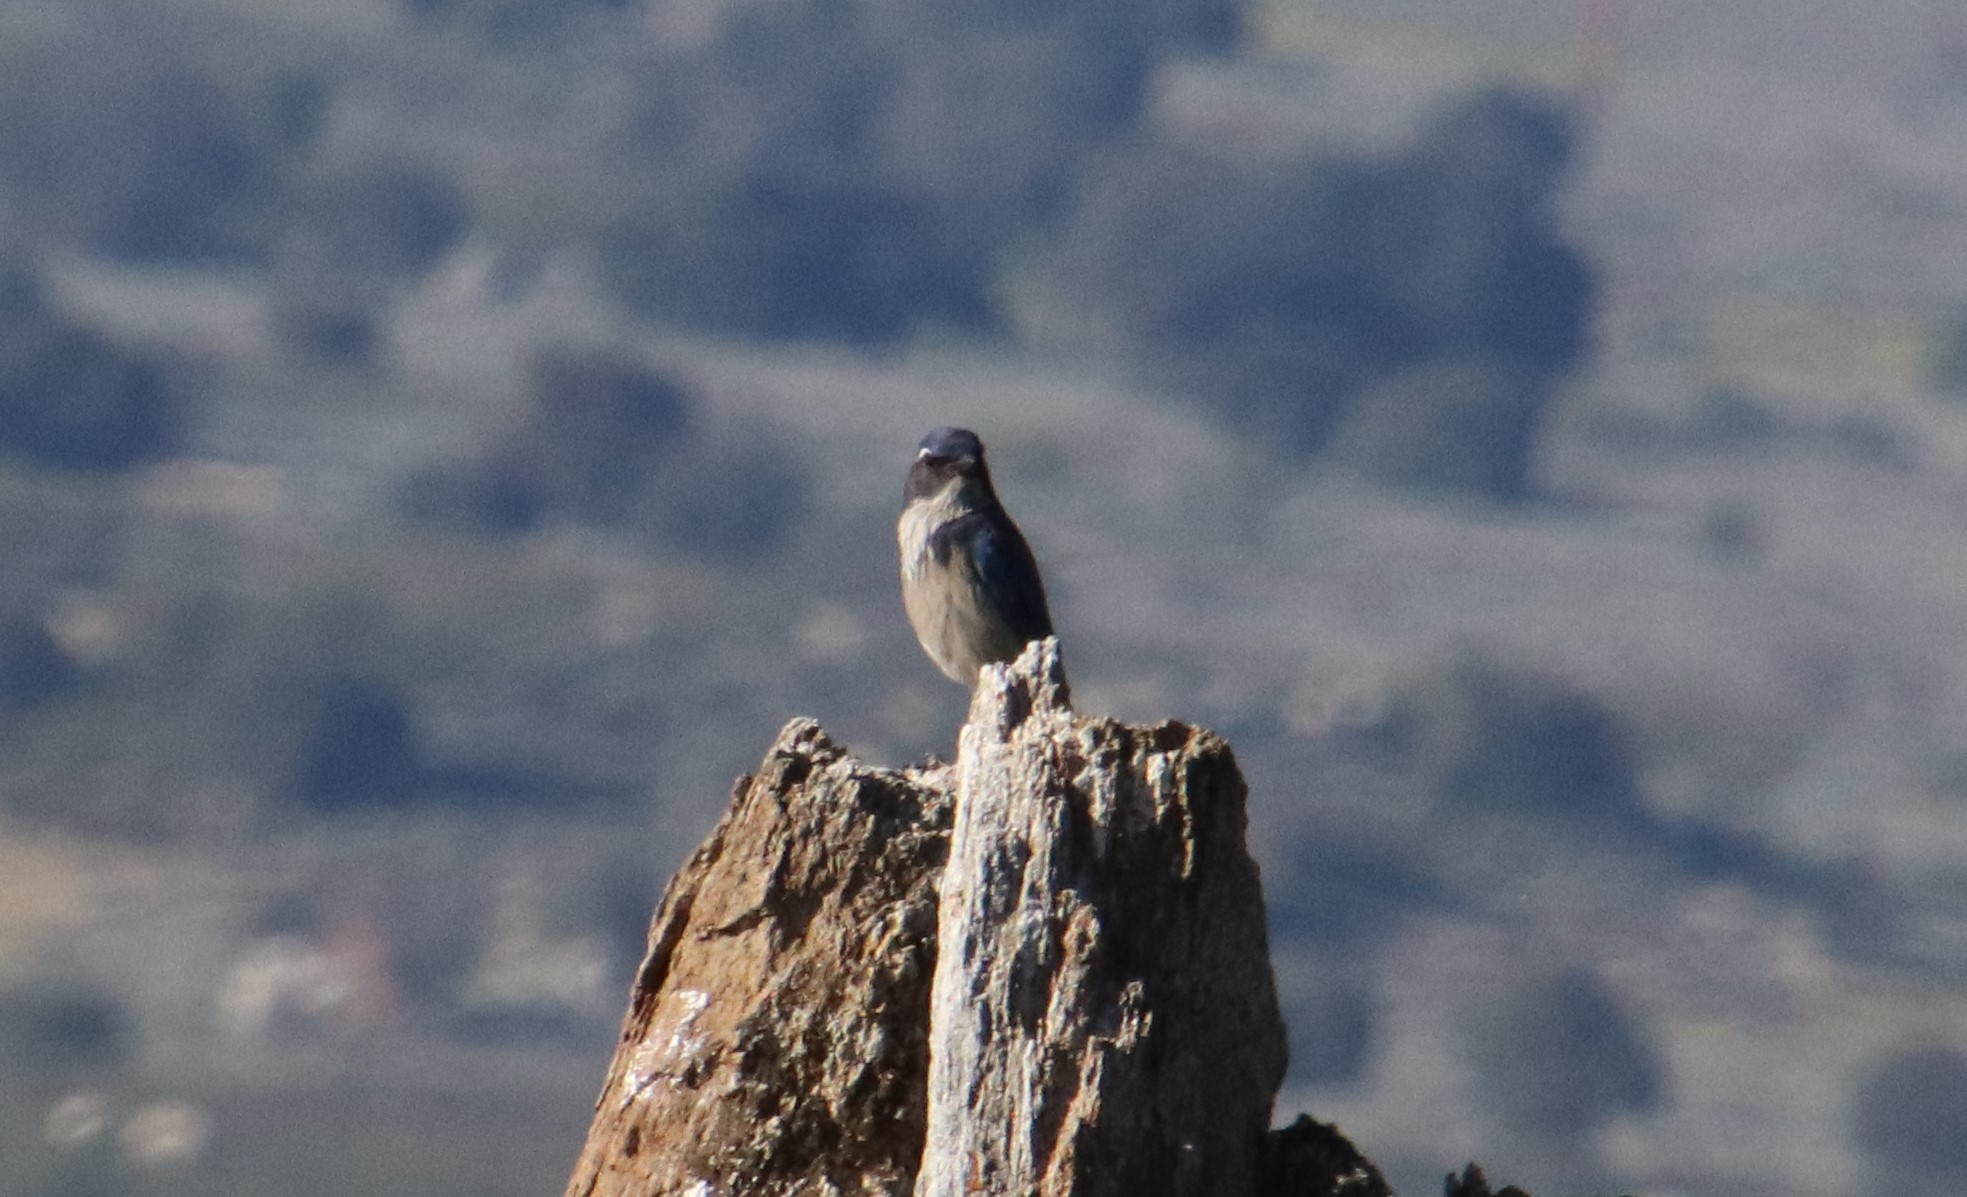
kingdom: Animalia
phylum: Chordata
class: Aves
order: Passeriformes
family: Corvidae
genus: Aphelocoma
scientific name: Aphelocoma californica
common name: California scrub-jay
